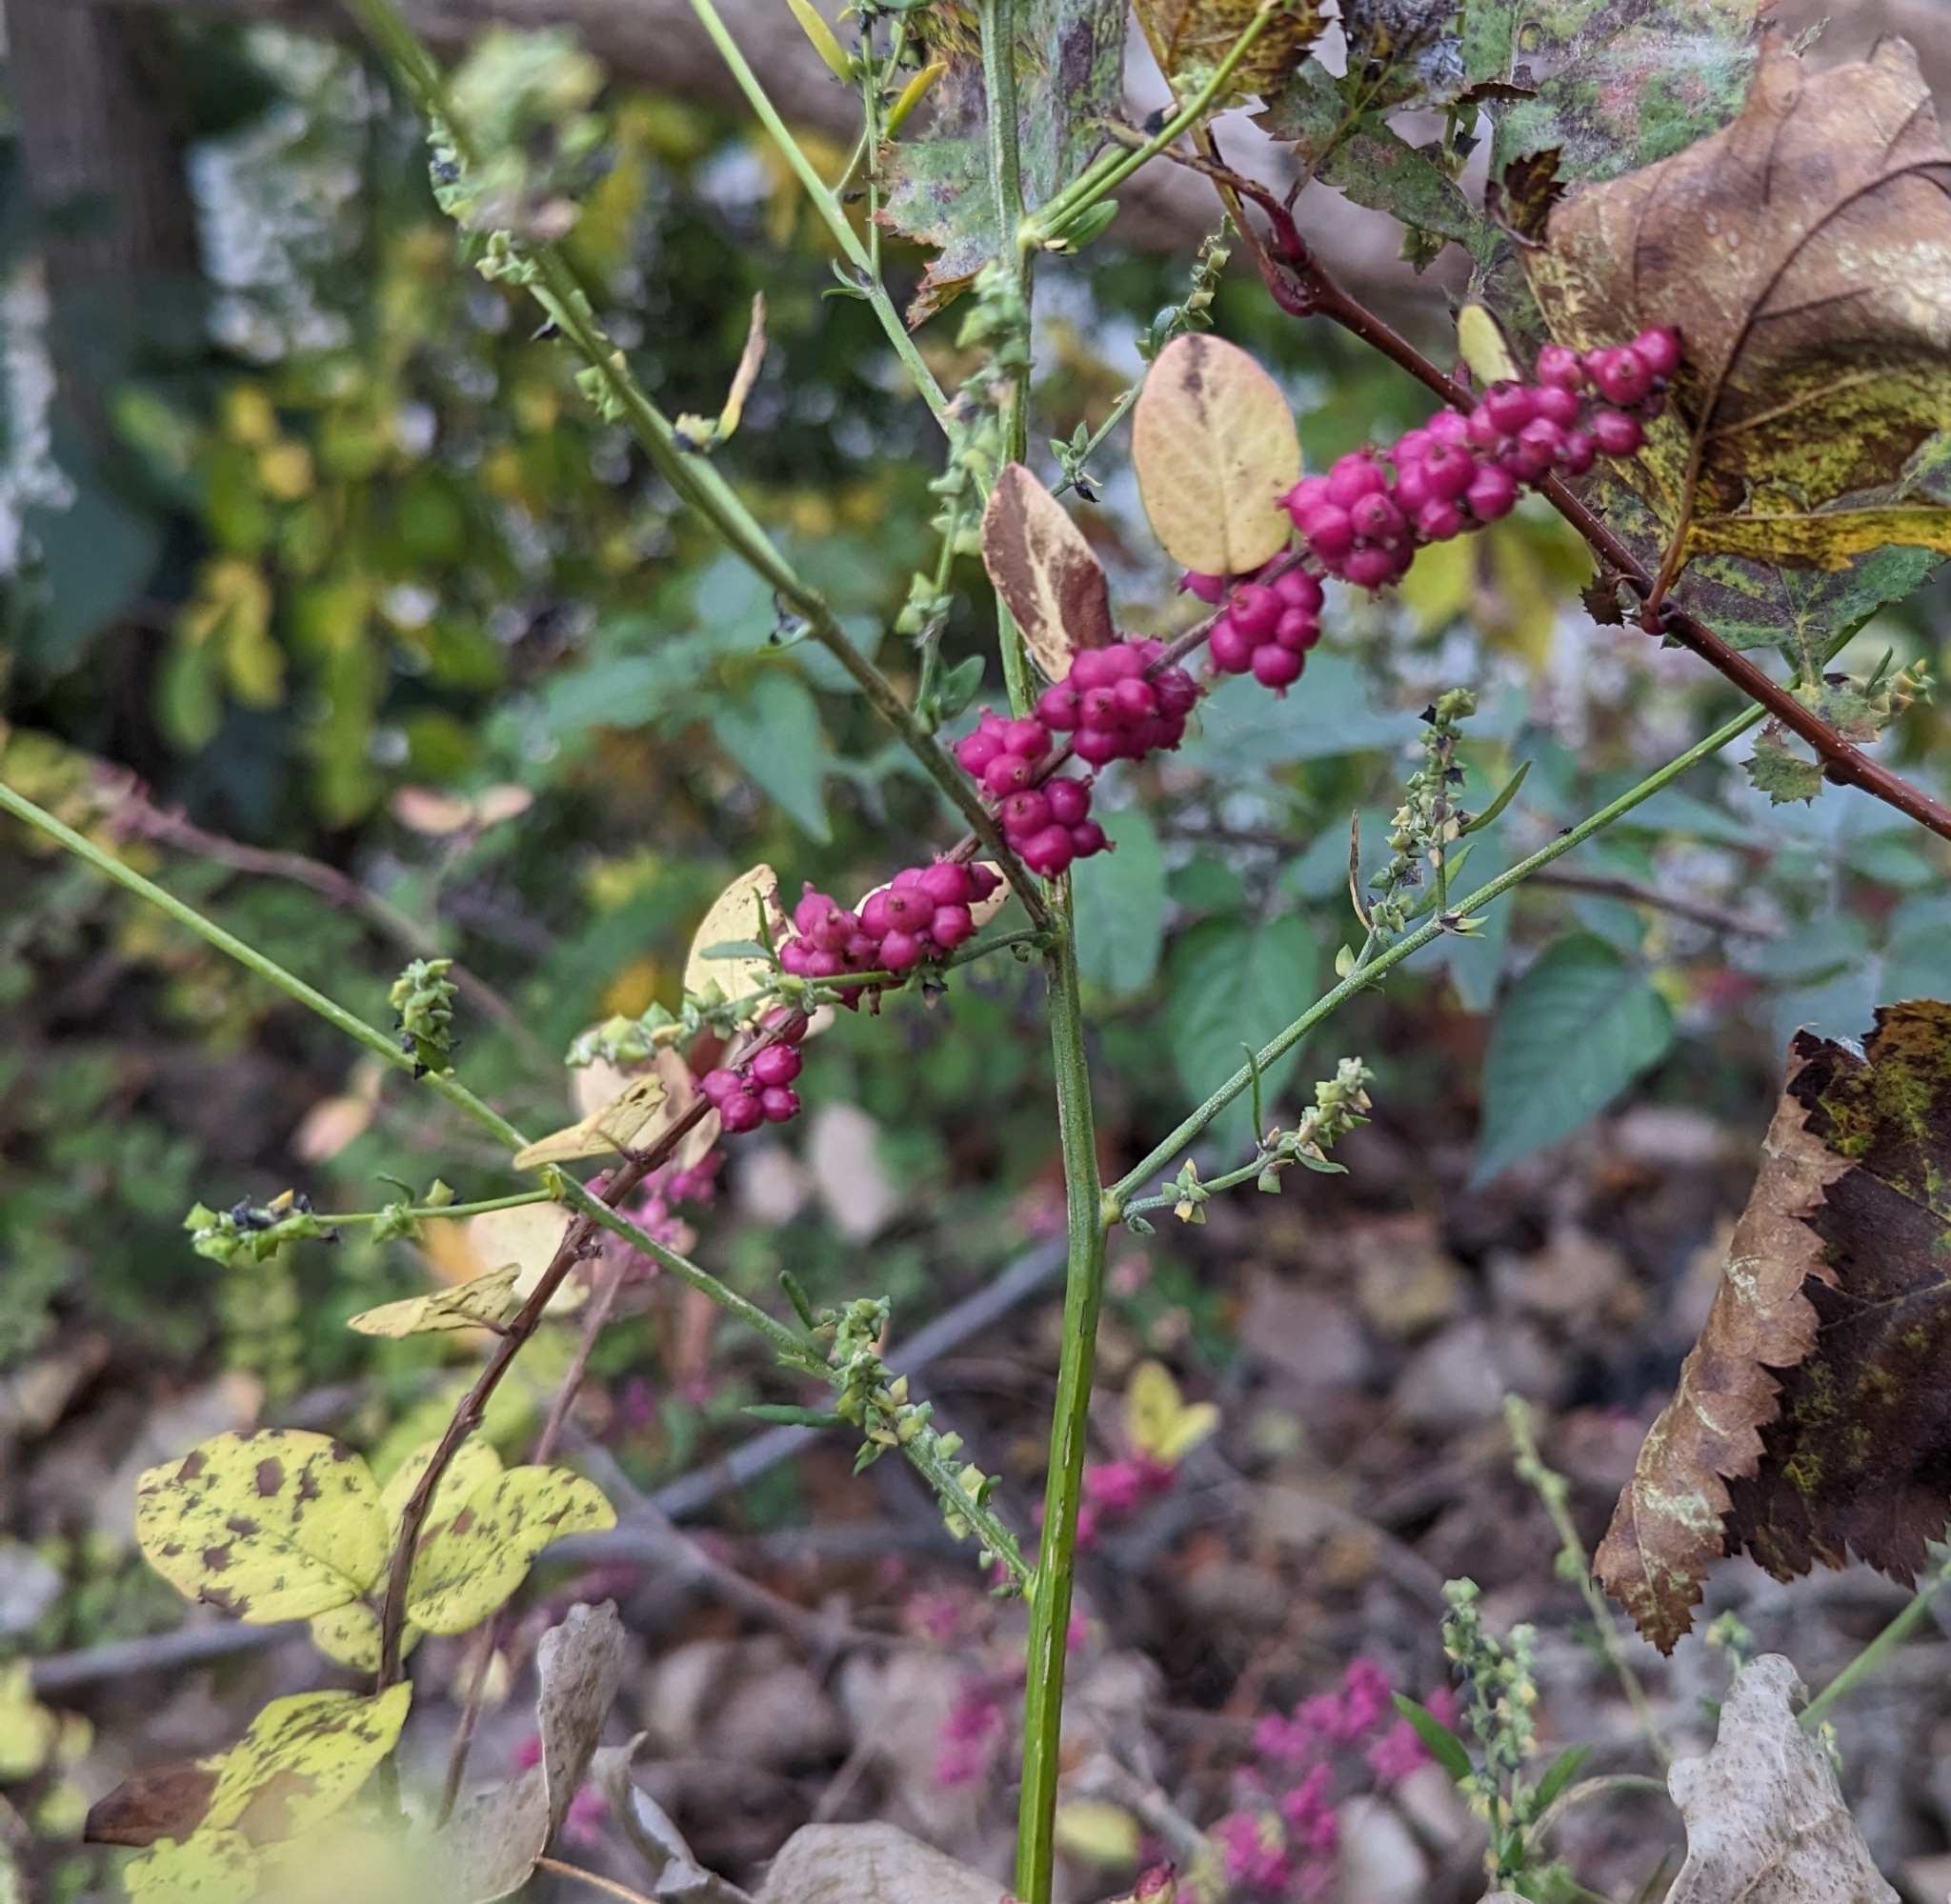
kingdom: Plantae
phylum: Tracheophyta
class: Magnoliopsida
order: Dipsacales
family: Caprifoliaceae
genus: Symphoricarpos
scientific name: Symphoricarpos orbiculatus
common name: Coralberry
